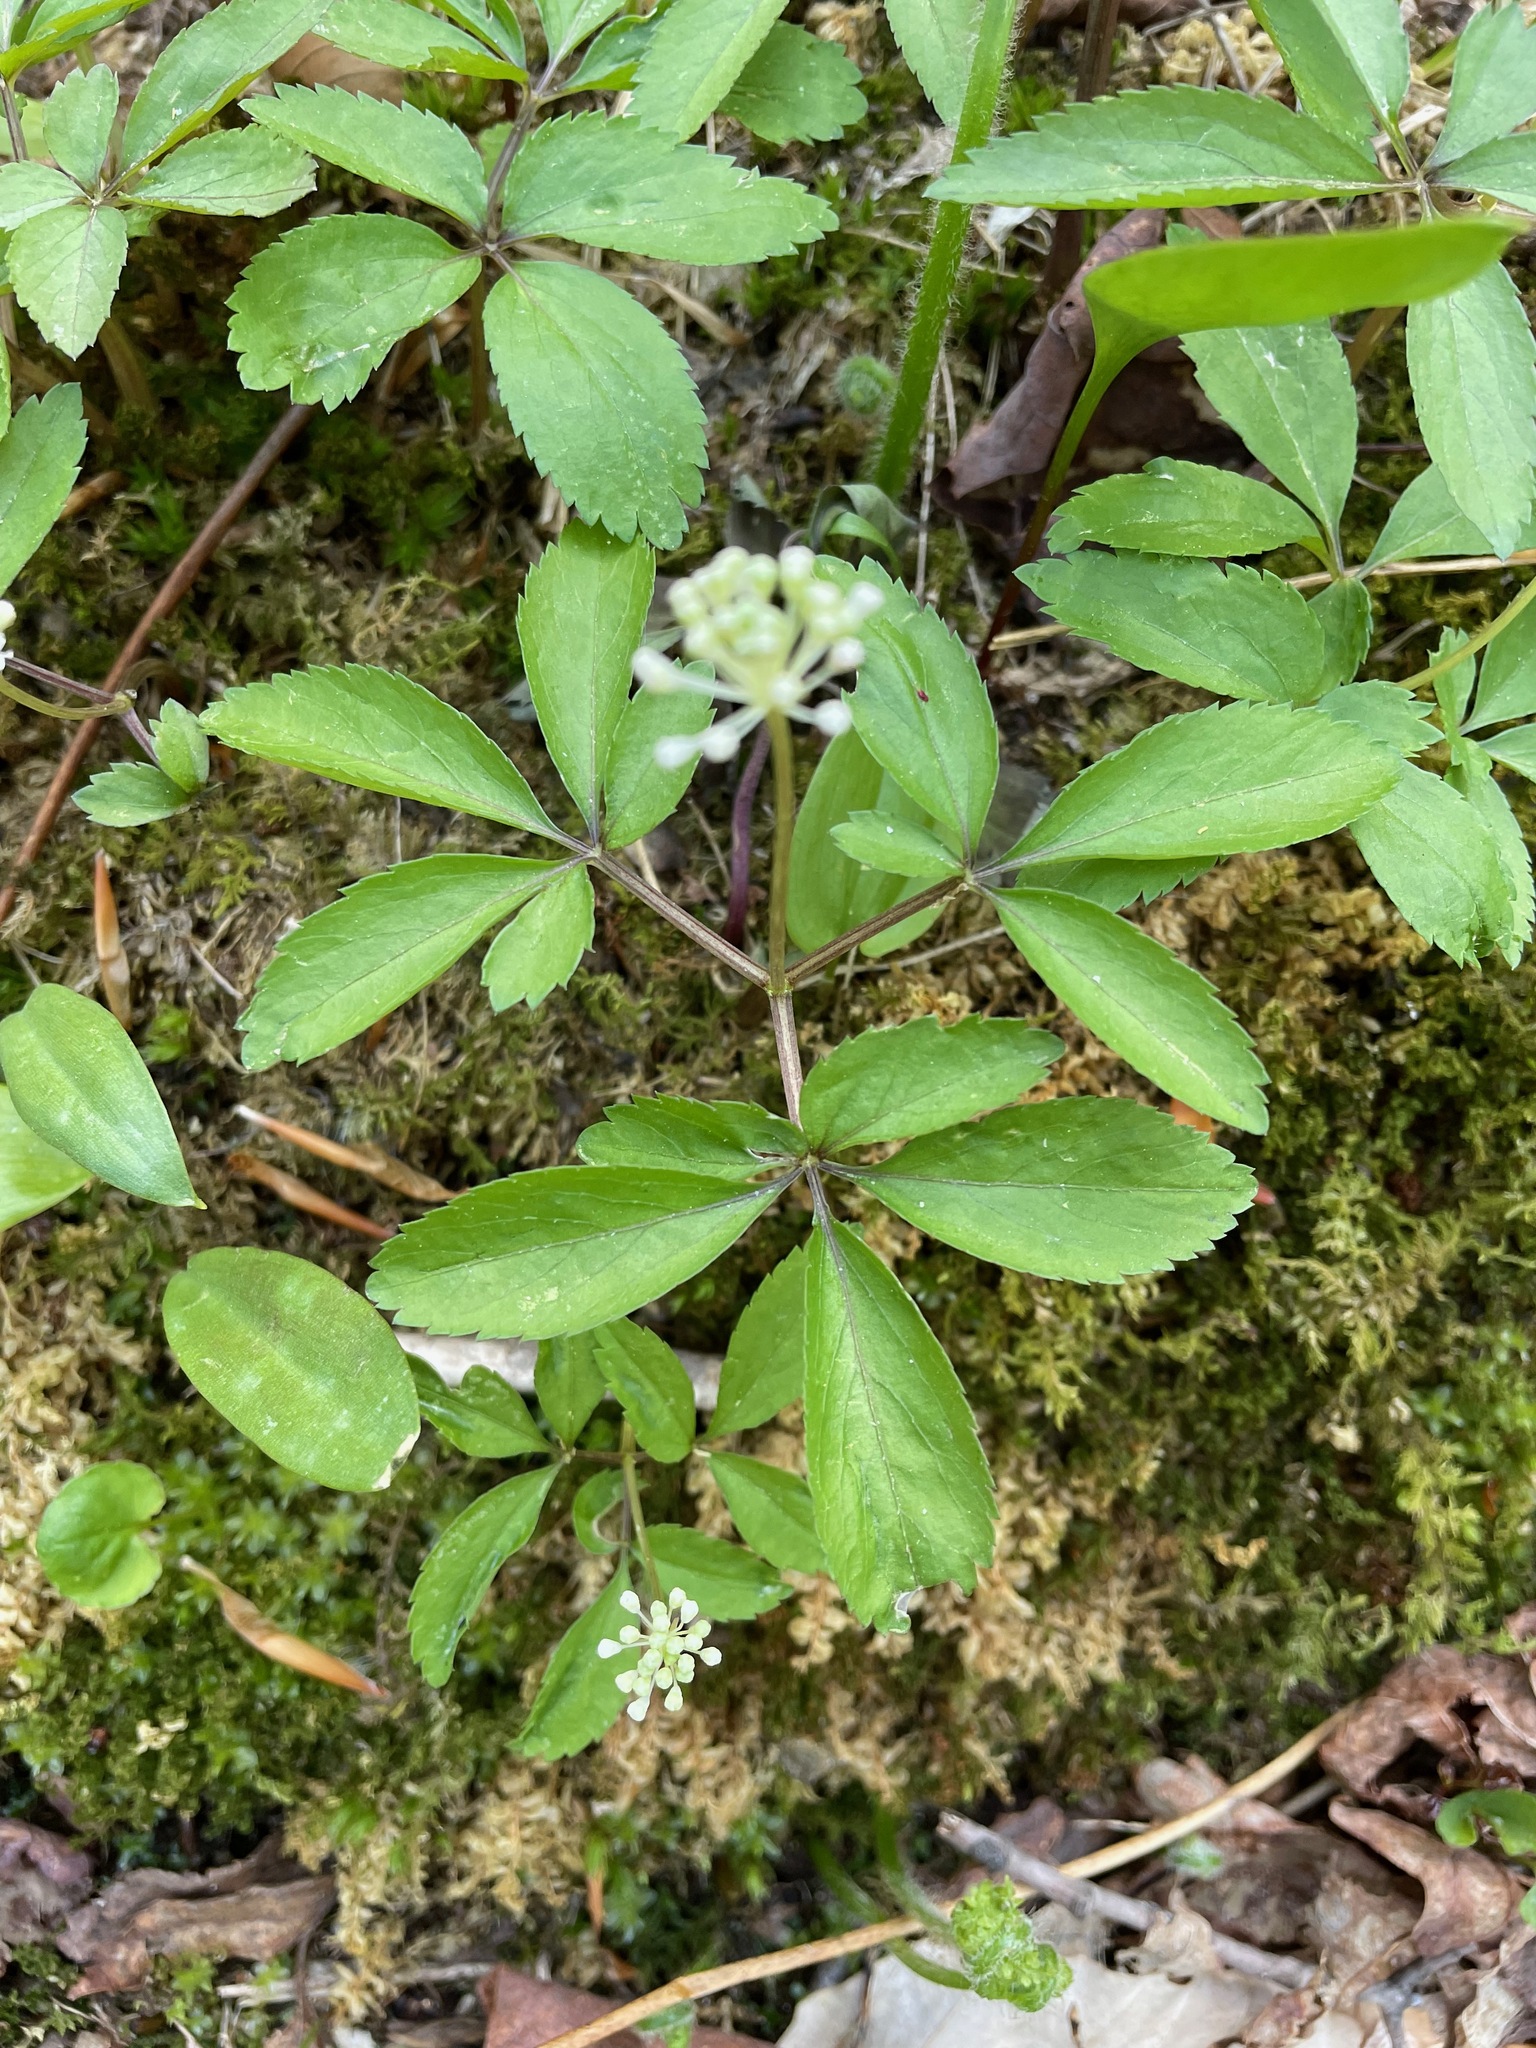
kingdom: Plantae
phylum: Tracheophyta
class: Magnoliopsida
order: Apiales
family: Araliaceae
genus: Panax
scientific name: Panax trifolius
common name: Dwarf ginseng
